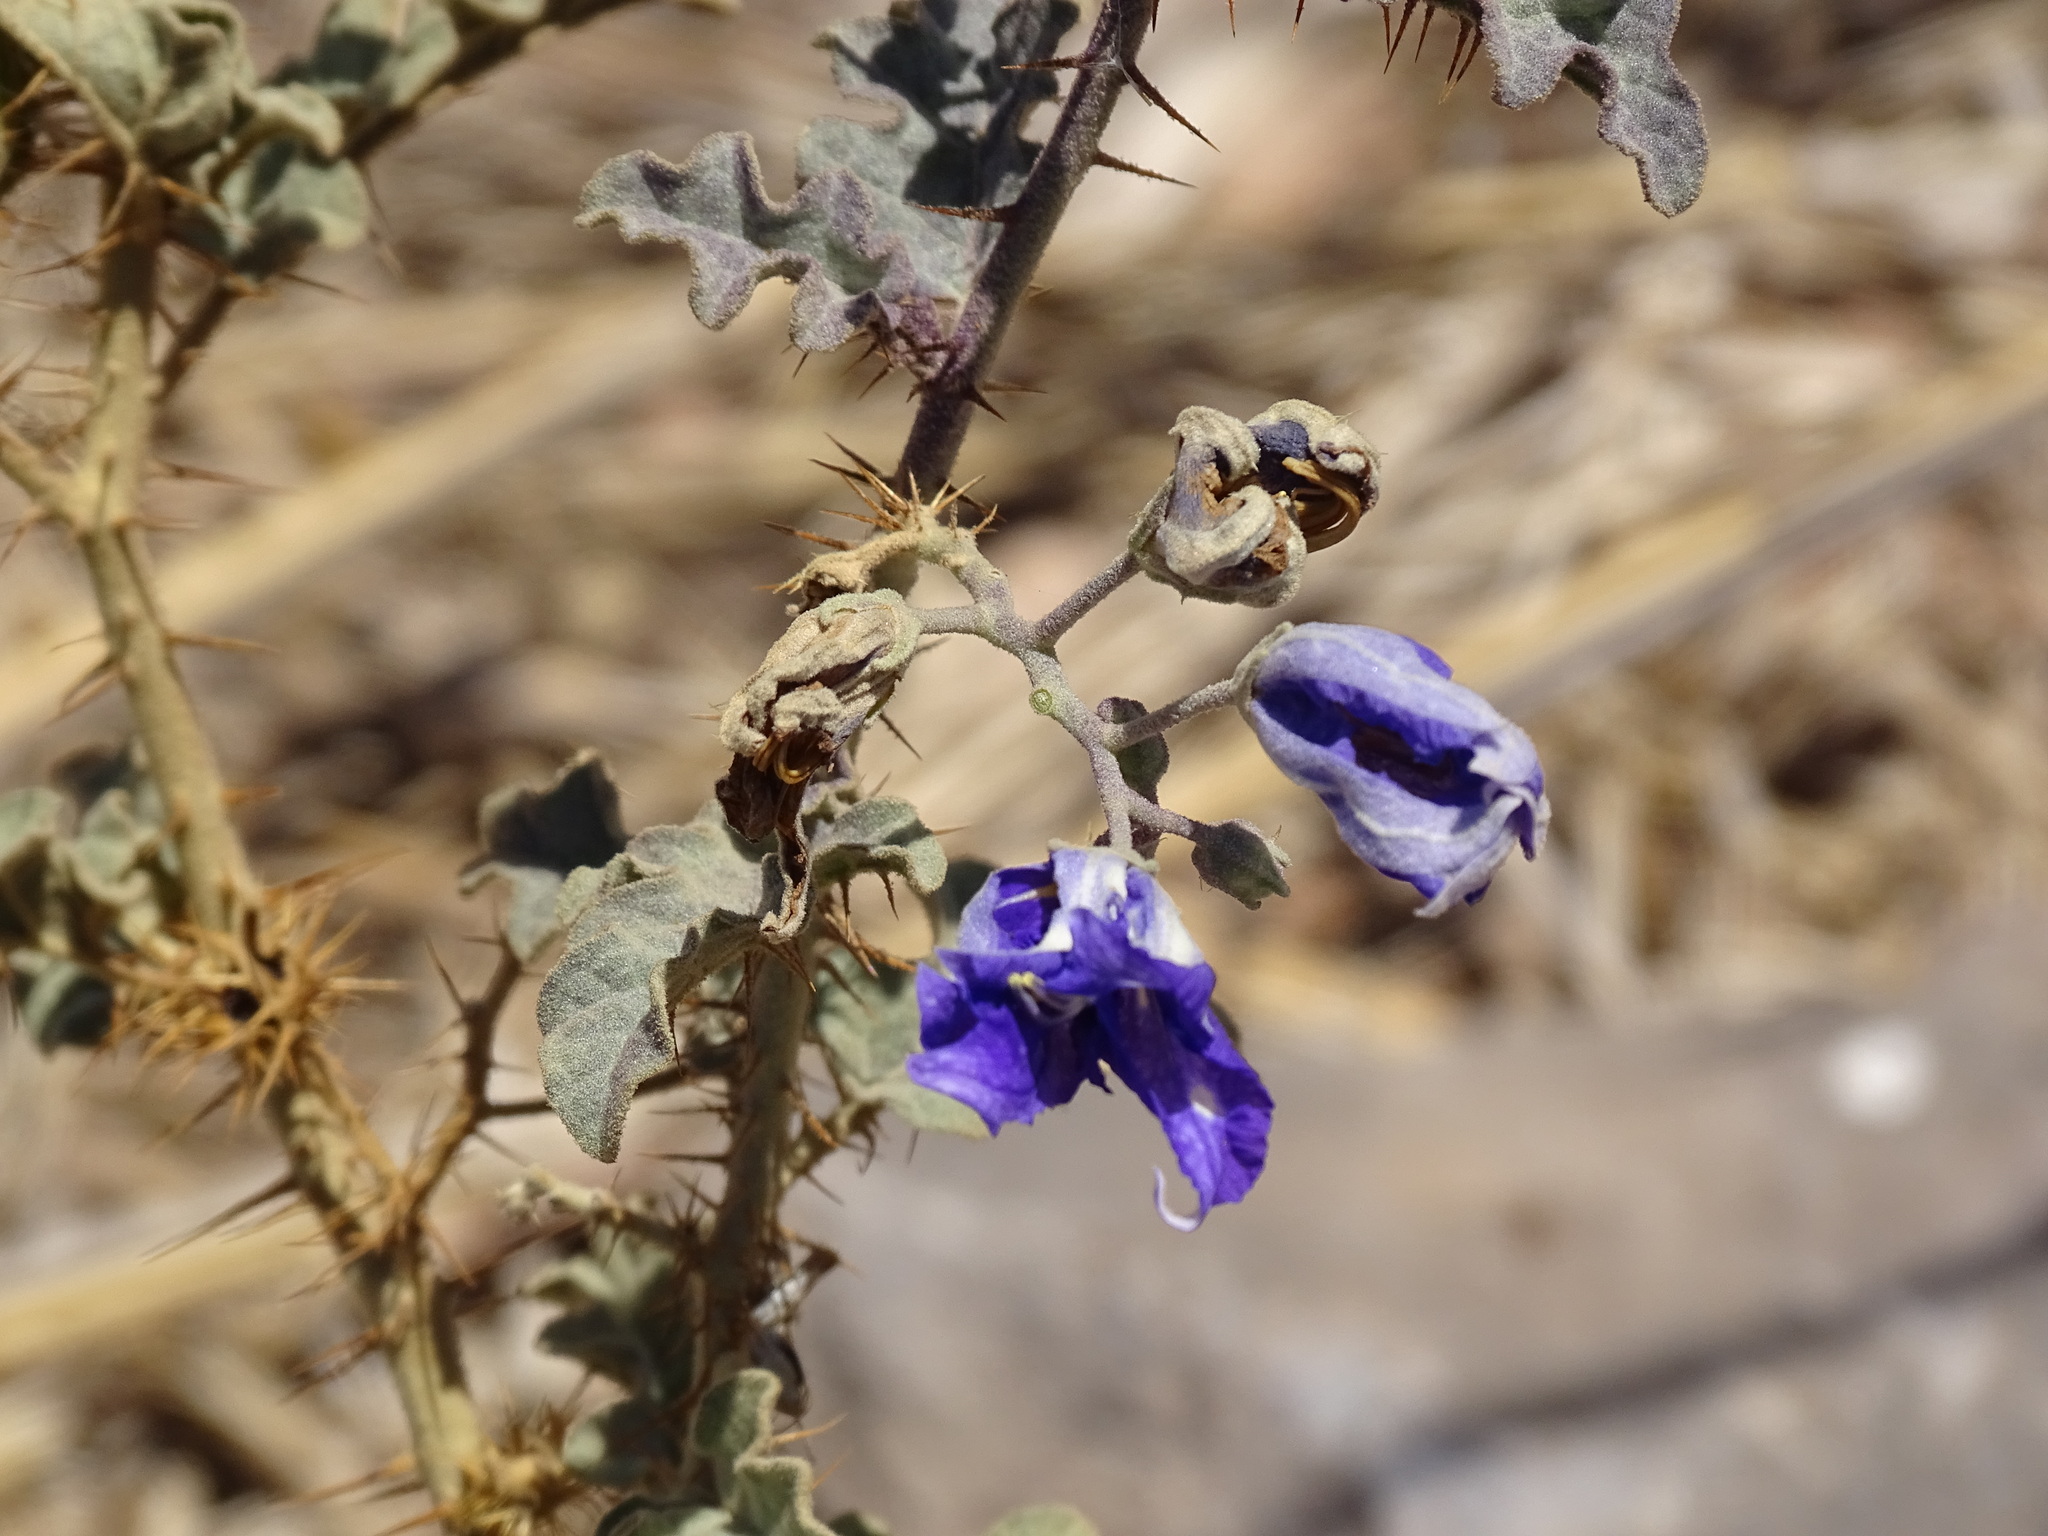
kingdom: Plantae
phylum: Tracheophyta
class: Magnoliopsida
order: Solanales
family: Solanaceae
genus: Solanum
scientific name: Solanum houstonii
